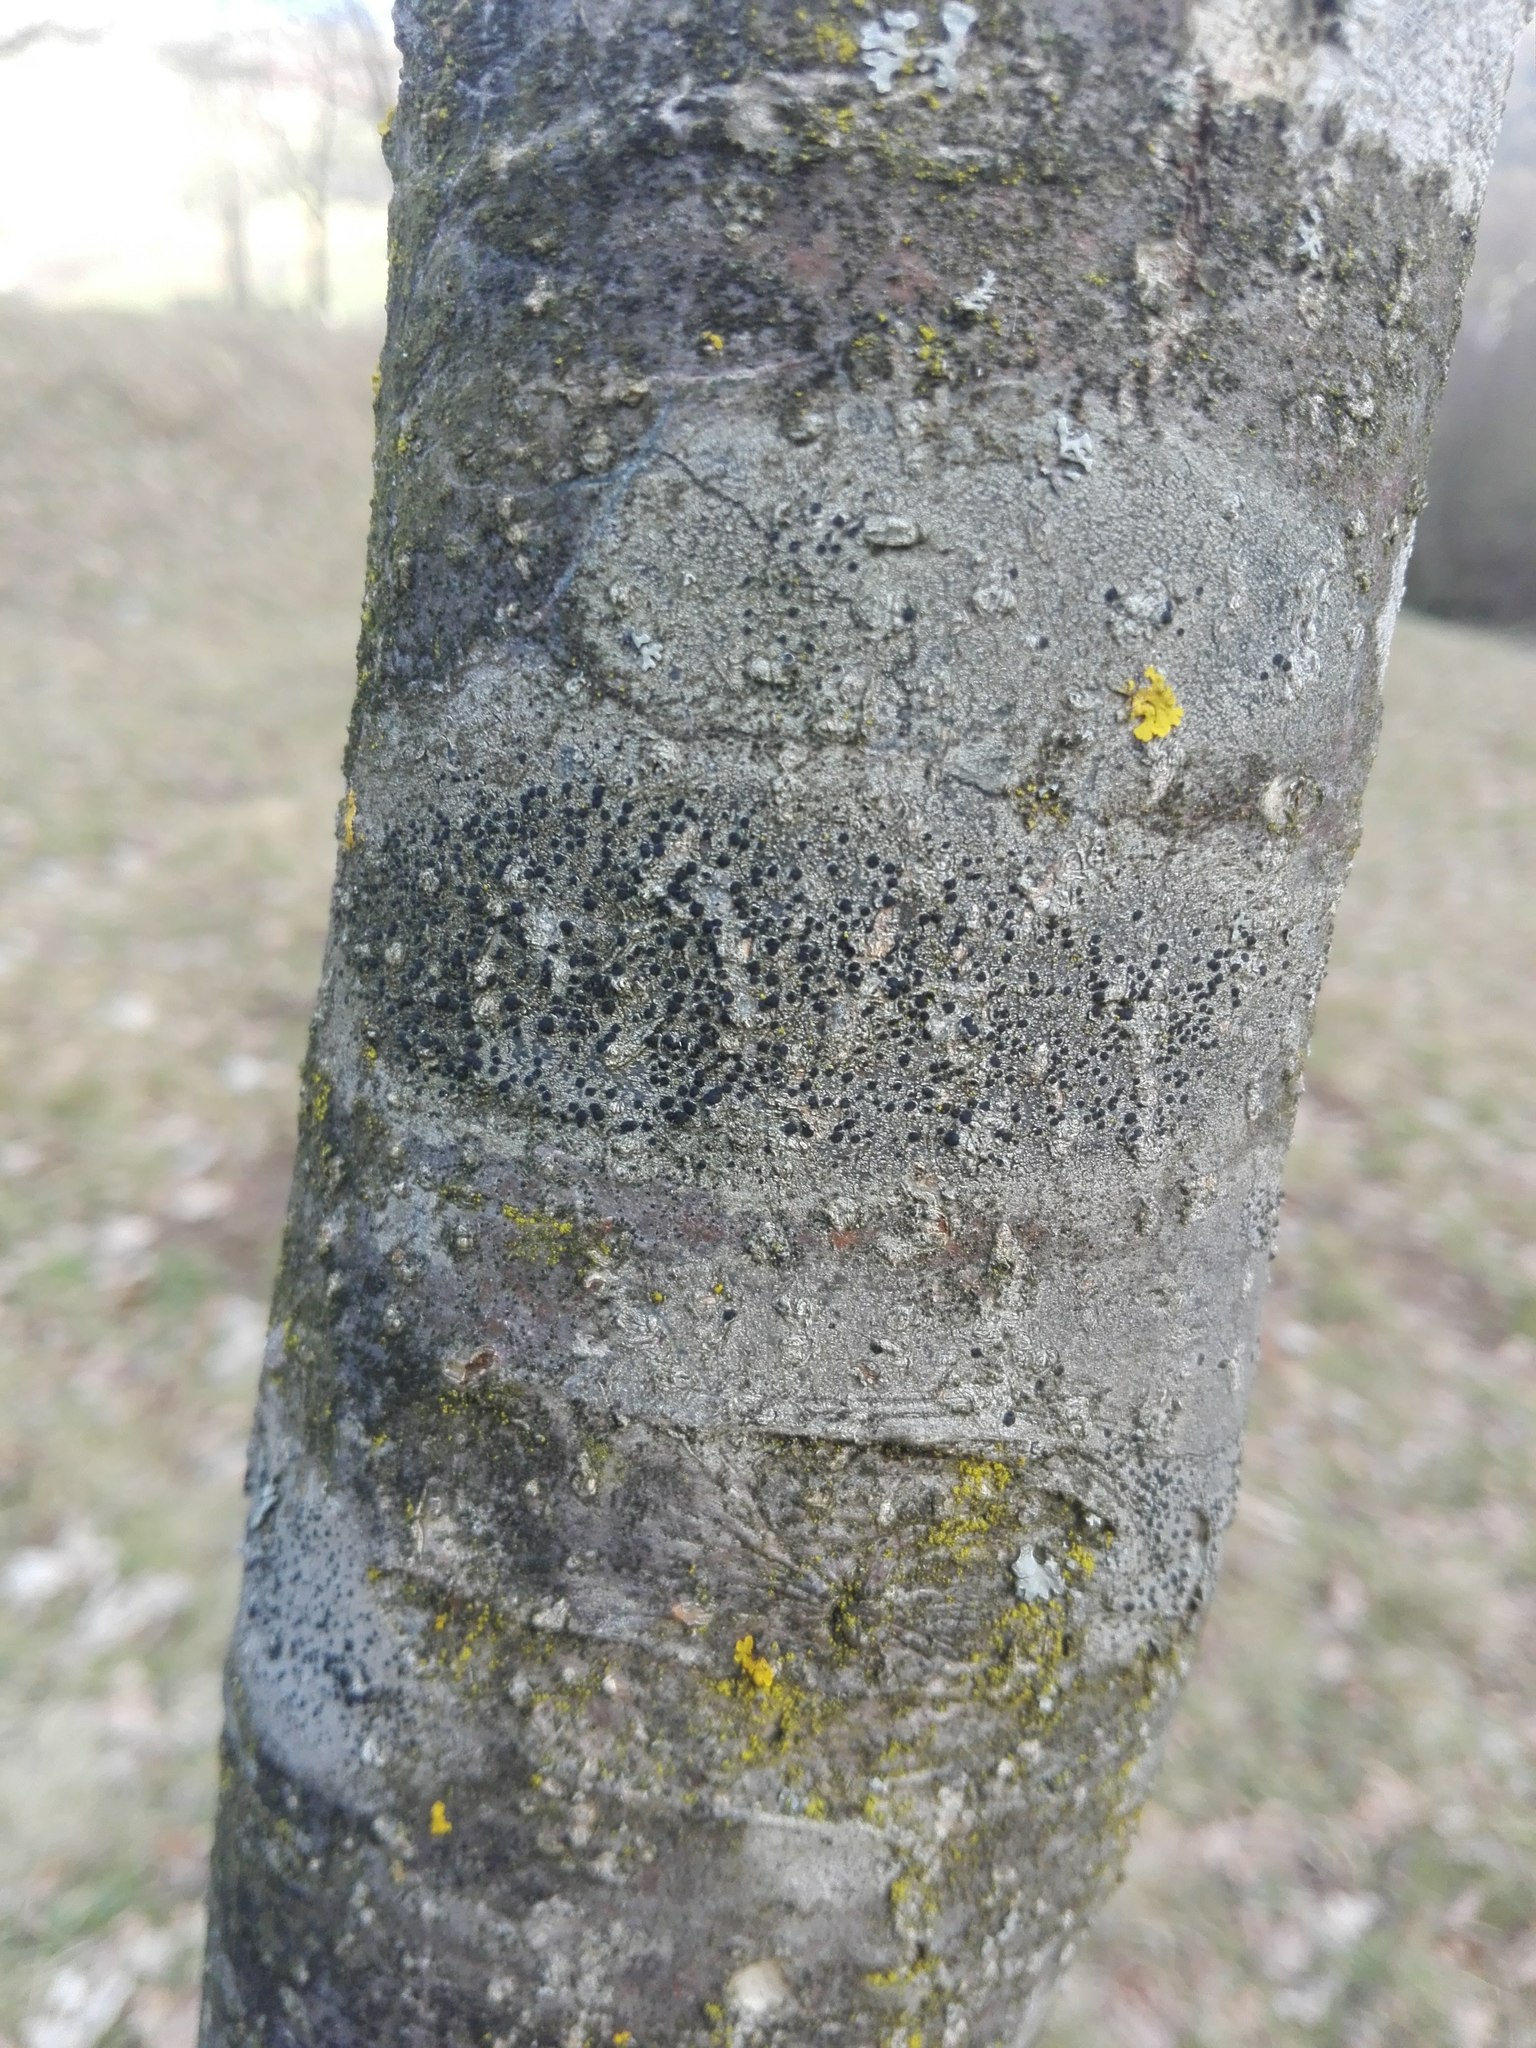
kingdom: Fungi
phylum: Ascomycota
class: Lecanoromycetes
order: Lecanorales
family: Lecanoraceae
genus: Lecidella
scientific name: Lecidella elaeochroma
